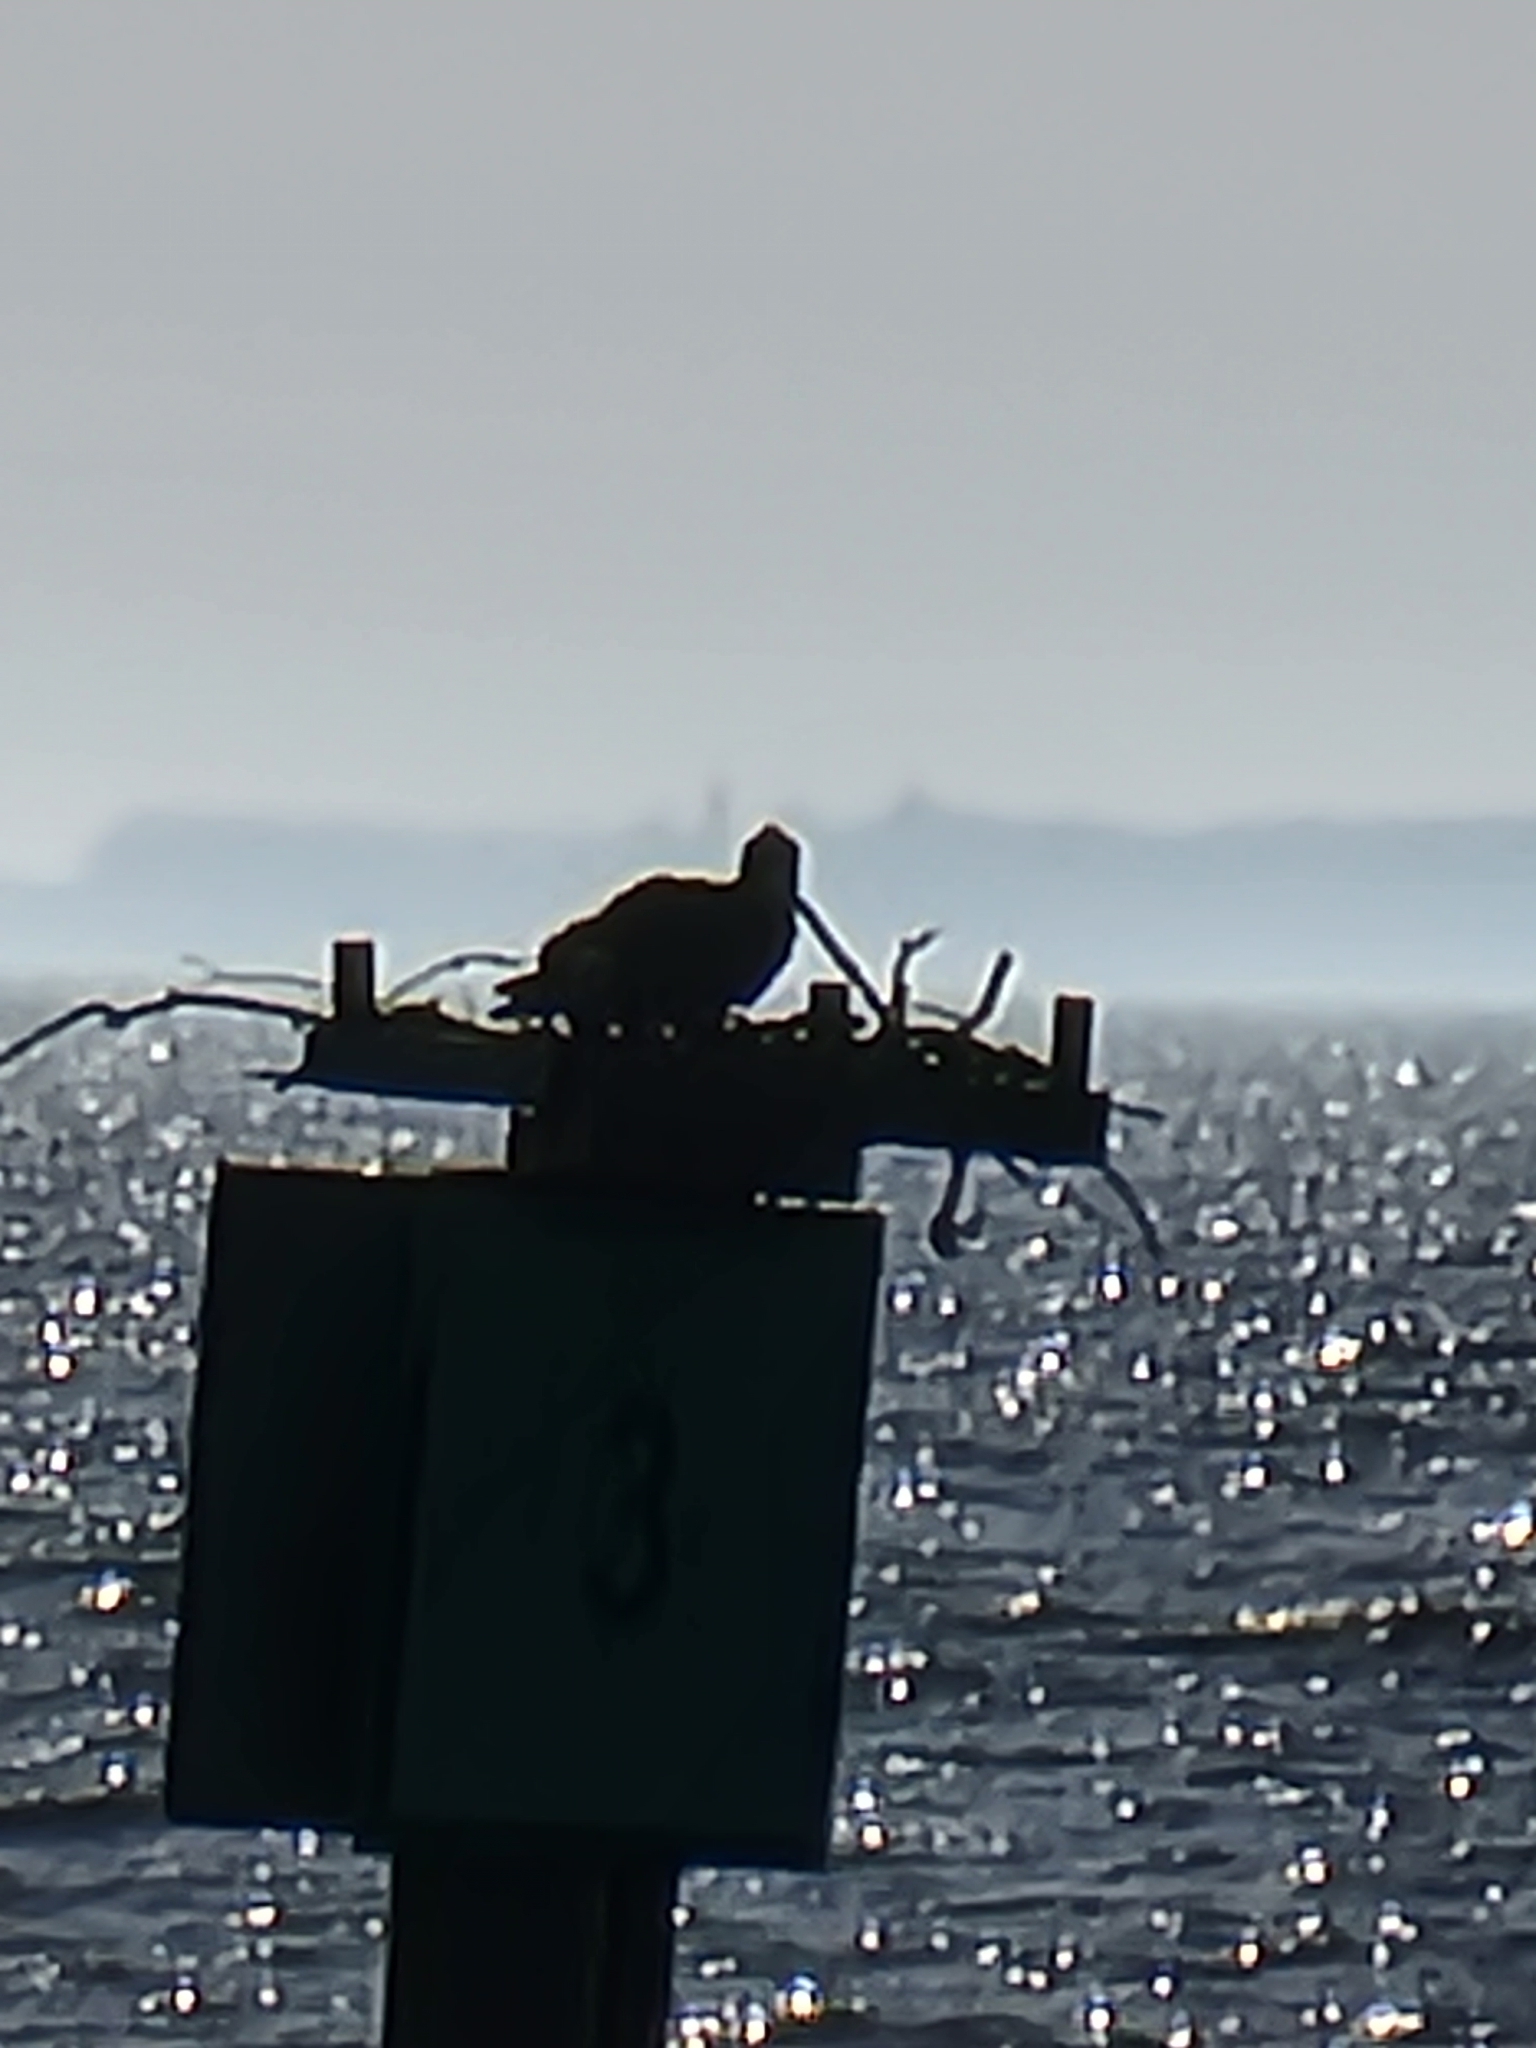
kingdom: Animalia
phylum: Chordata
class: Aves
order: Accipitriformes
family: Pandionidae
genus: Pandion
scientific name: Pandion haliaetus
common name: Osprey
